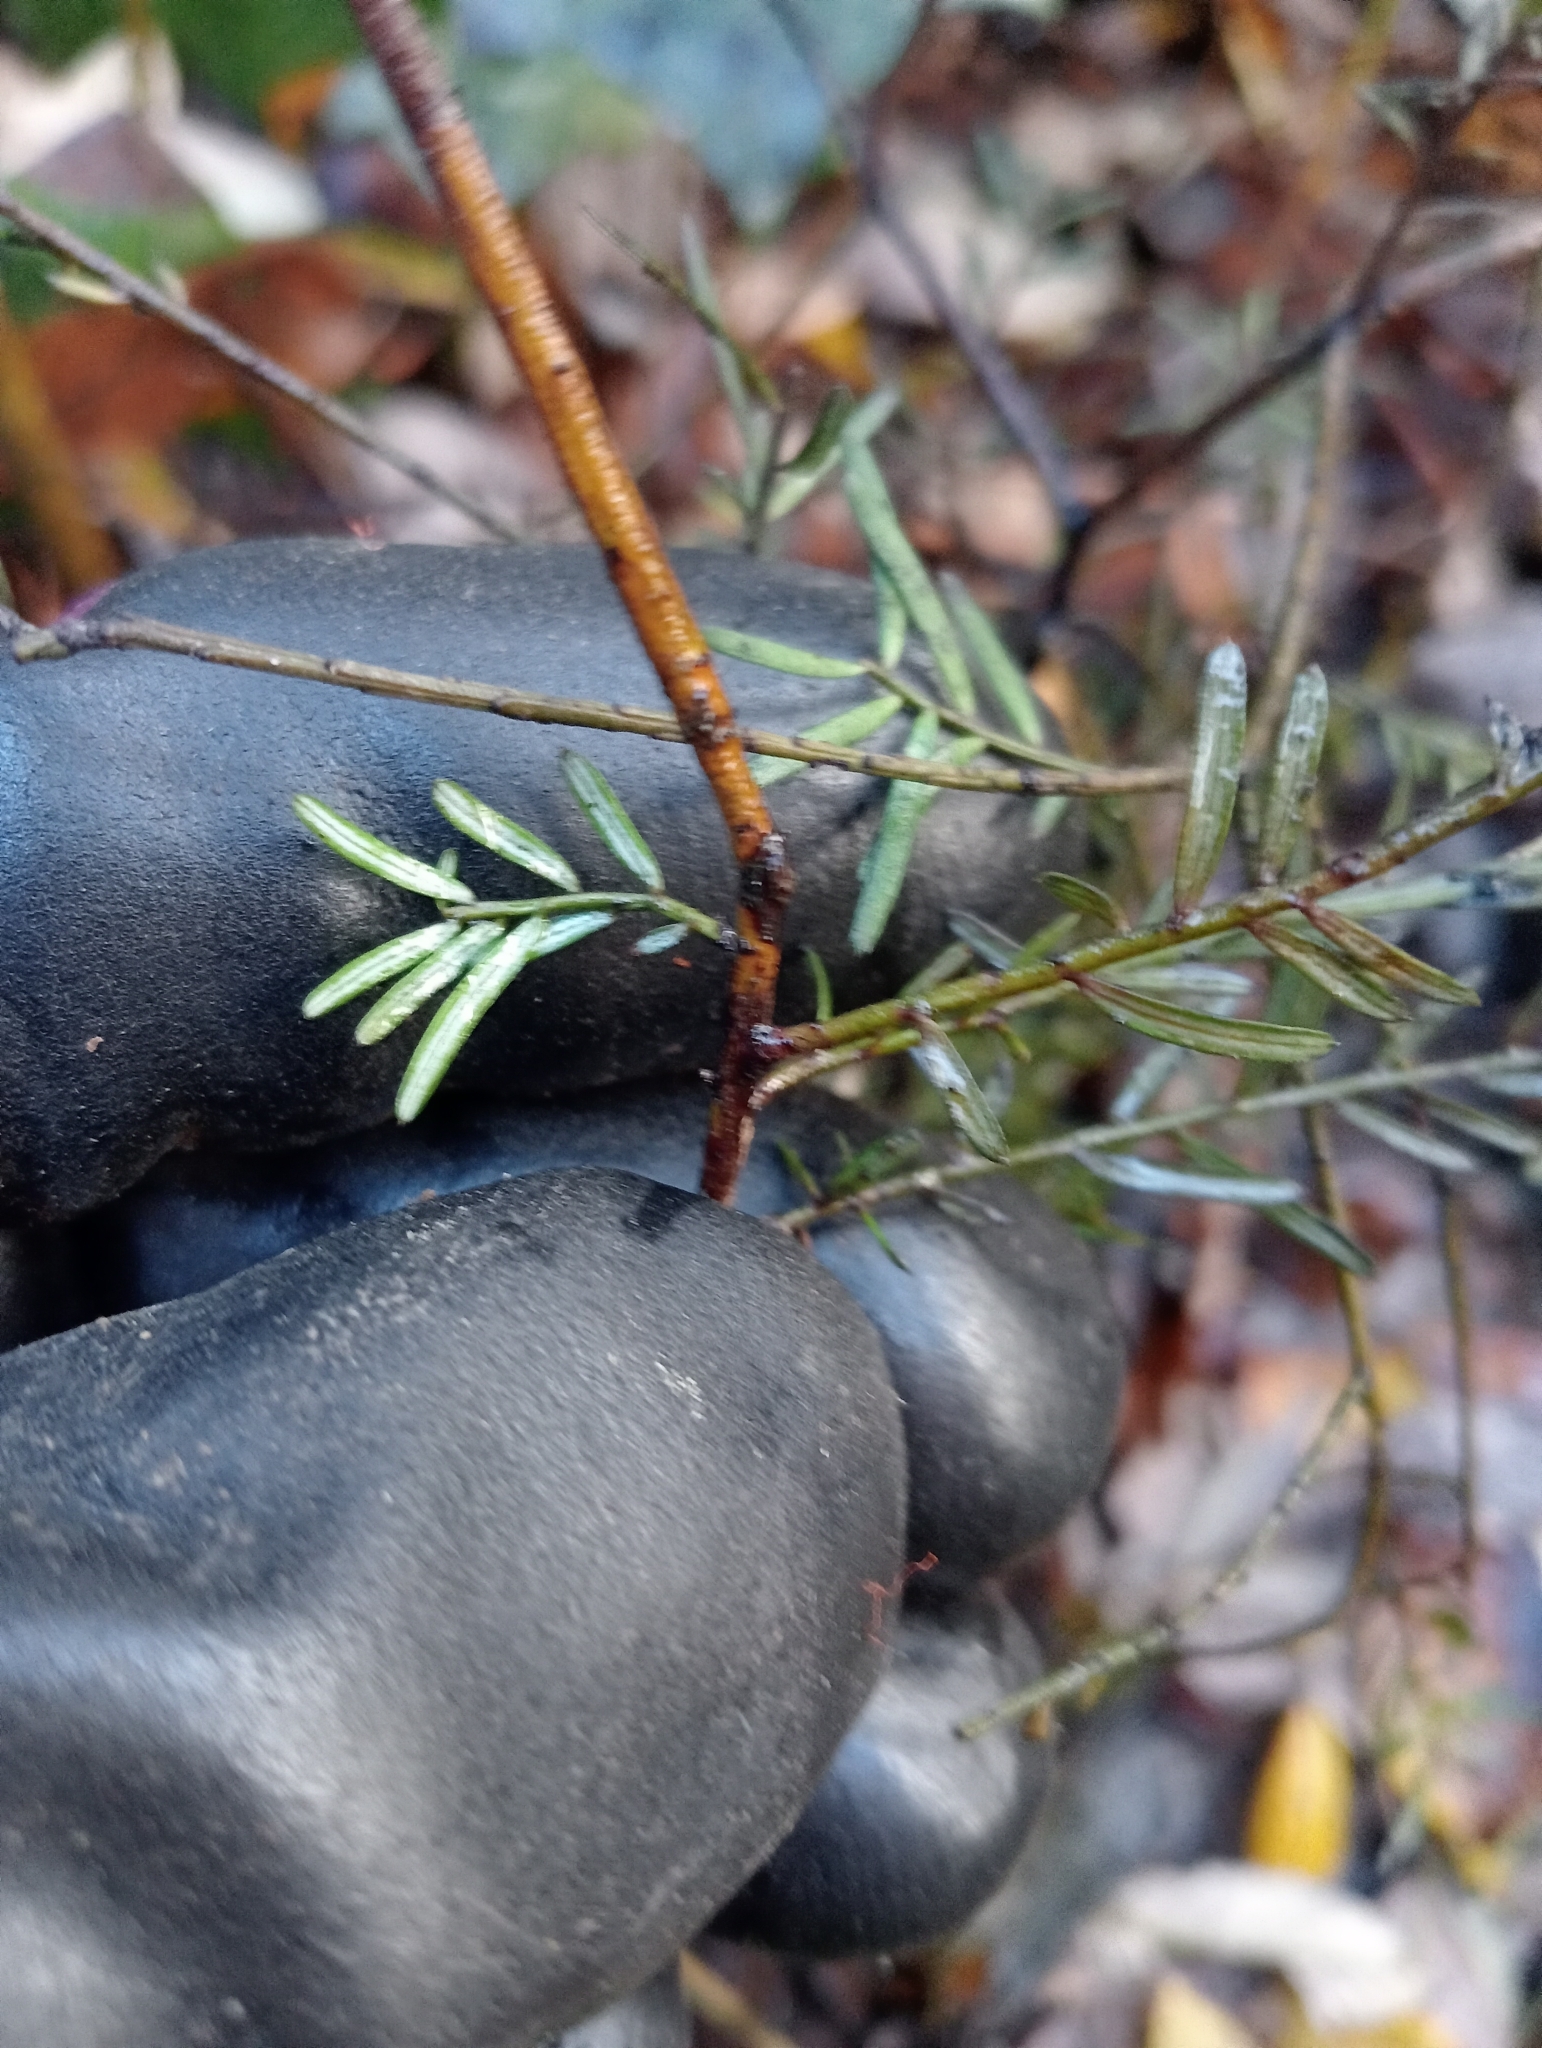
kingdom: Plantae
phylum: Tracheophyta
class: Pinopsida
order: Pinales
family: Podocarpaceae
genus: Prumnopitys
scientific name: Prumnopitys taxifolia
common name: Matai
